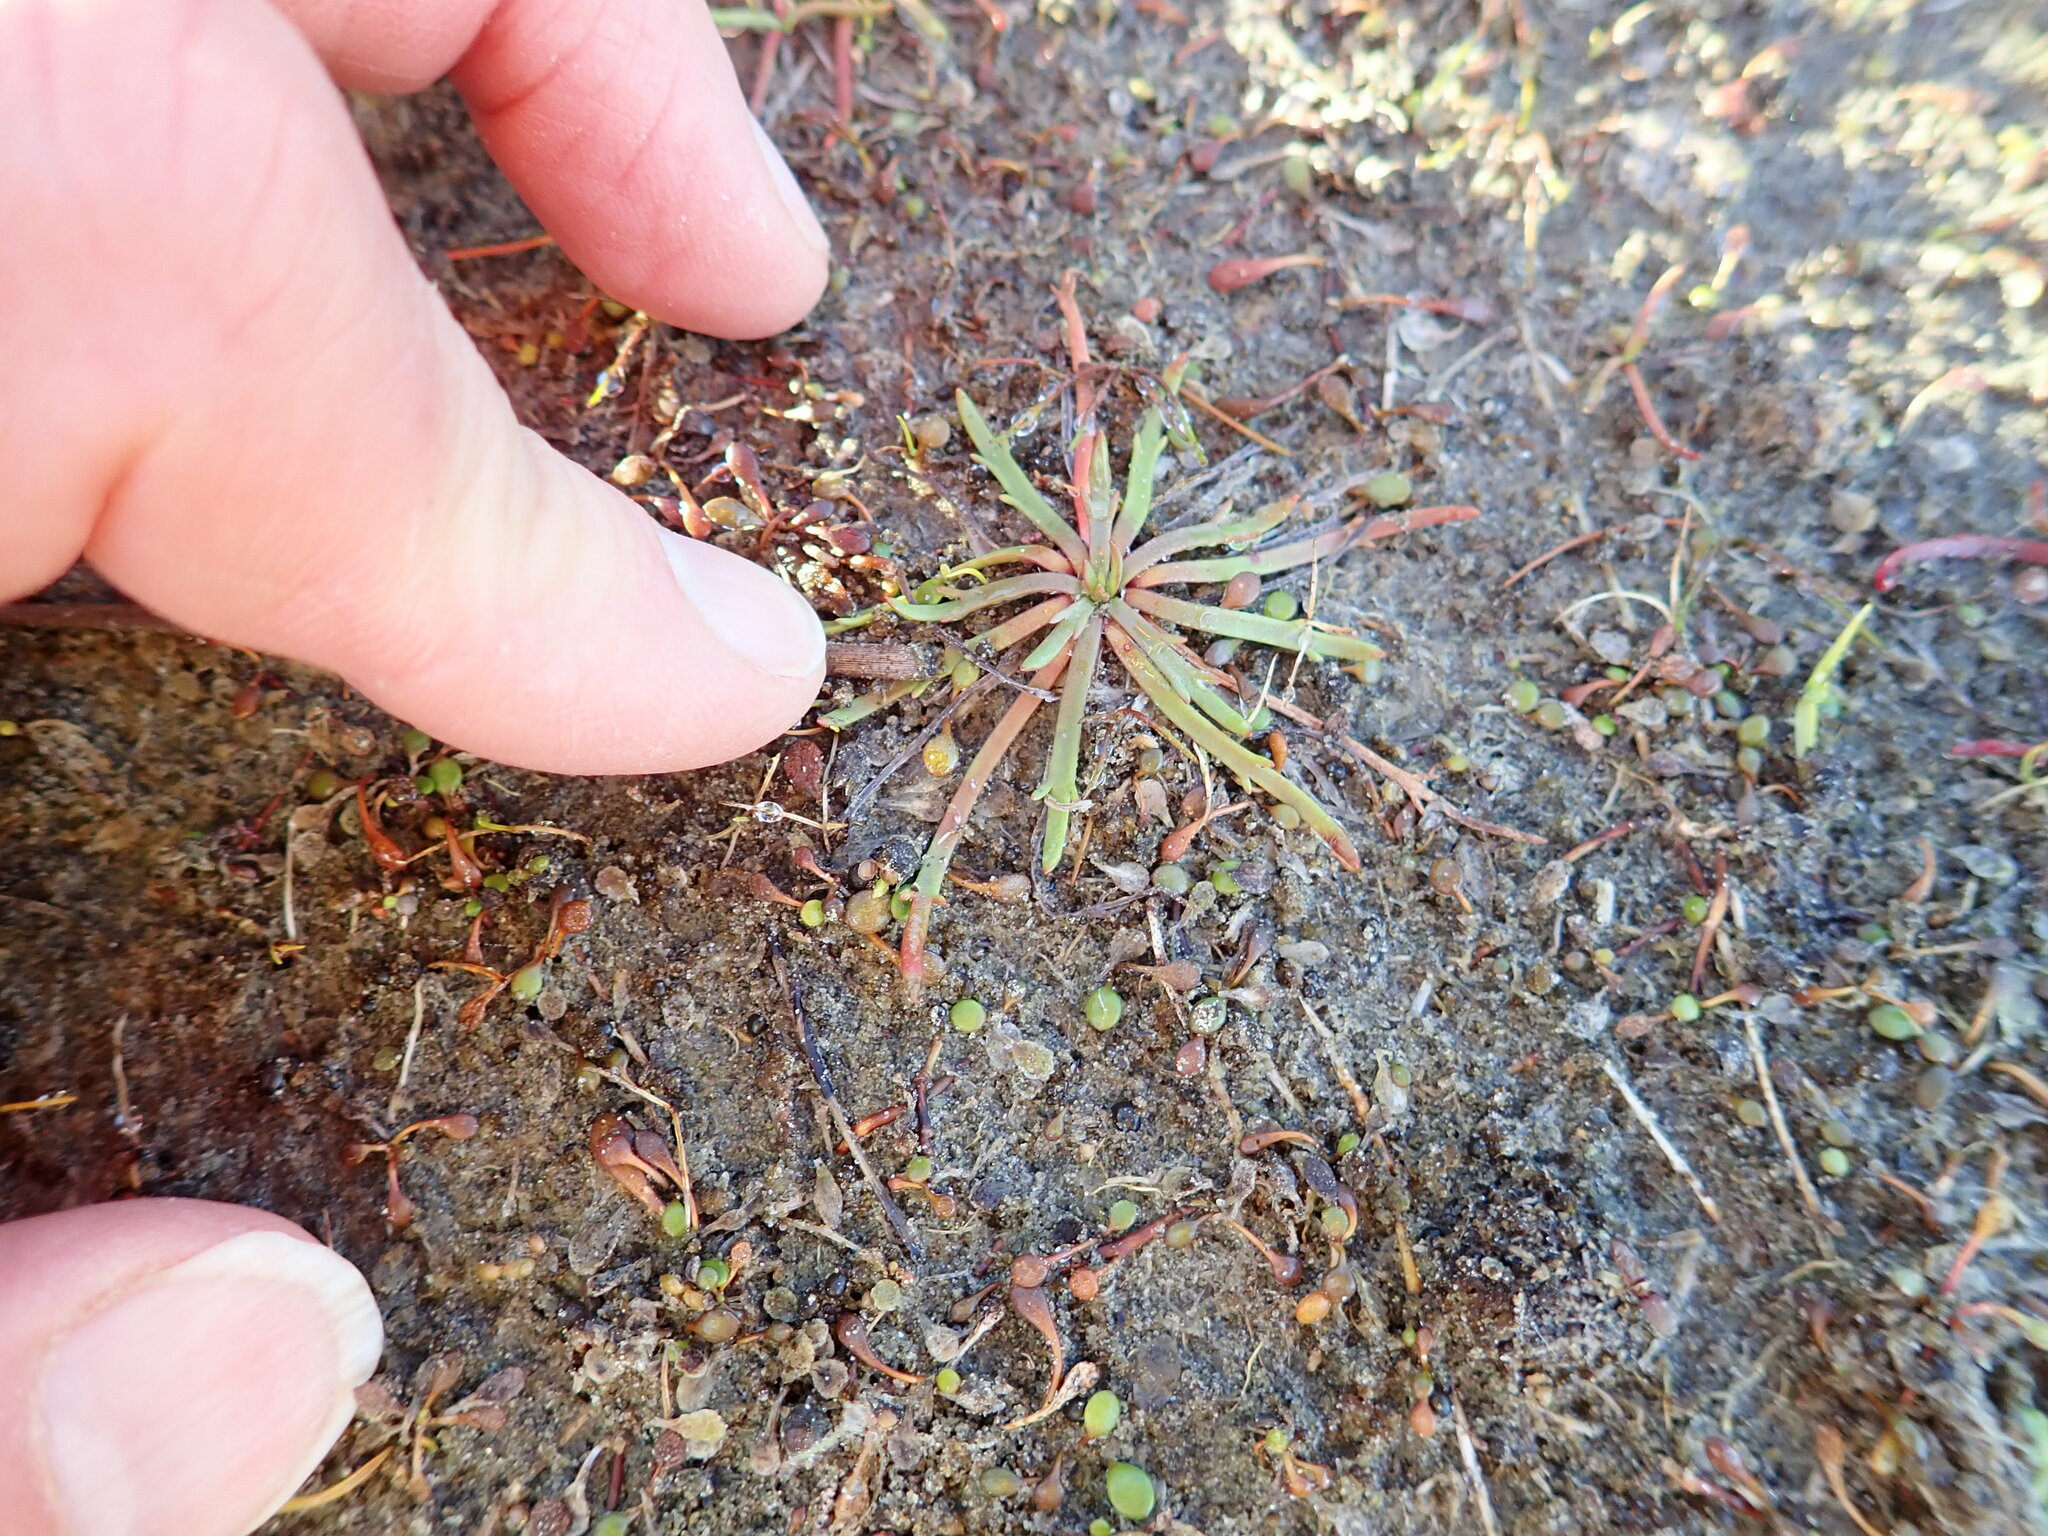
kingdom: Plantae
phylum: Tracheophyta
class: Magnoliopsida
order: Lamiales
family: Plantaginaceae
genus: Plantago
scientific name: Plantago coronopus
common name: Buck's-horn plantain
